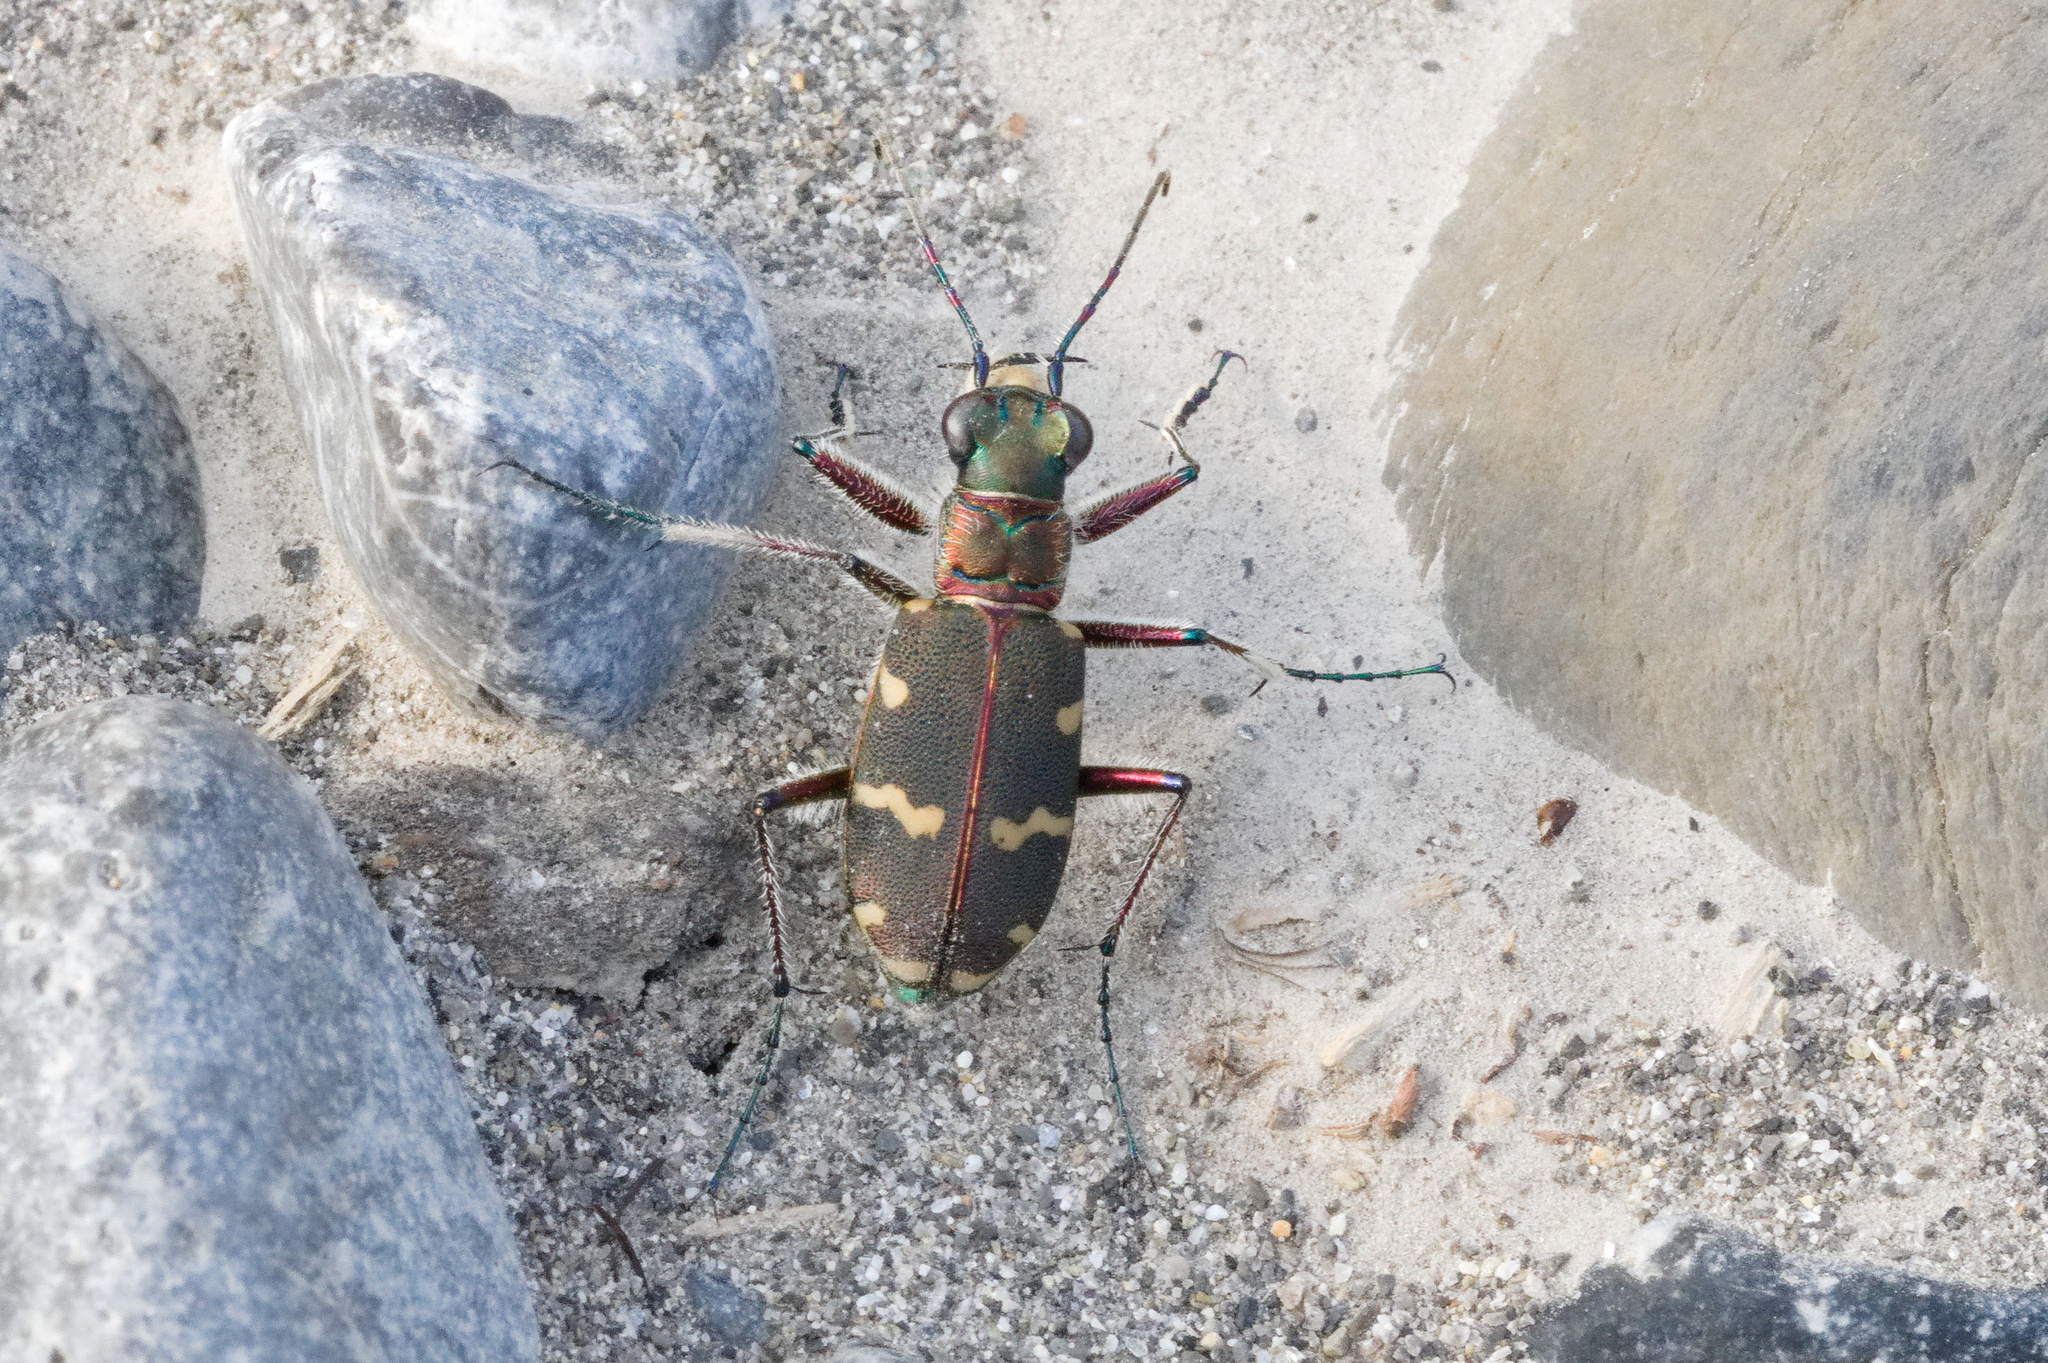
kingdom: Animalia
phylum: Arthropoda
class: Insecta
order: Coleoptera
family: Carabidae
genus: Cicindela
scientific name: Cicindela hybrida
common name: Northern dune tiger beetle
